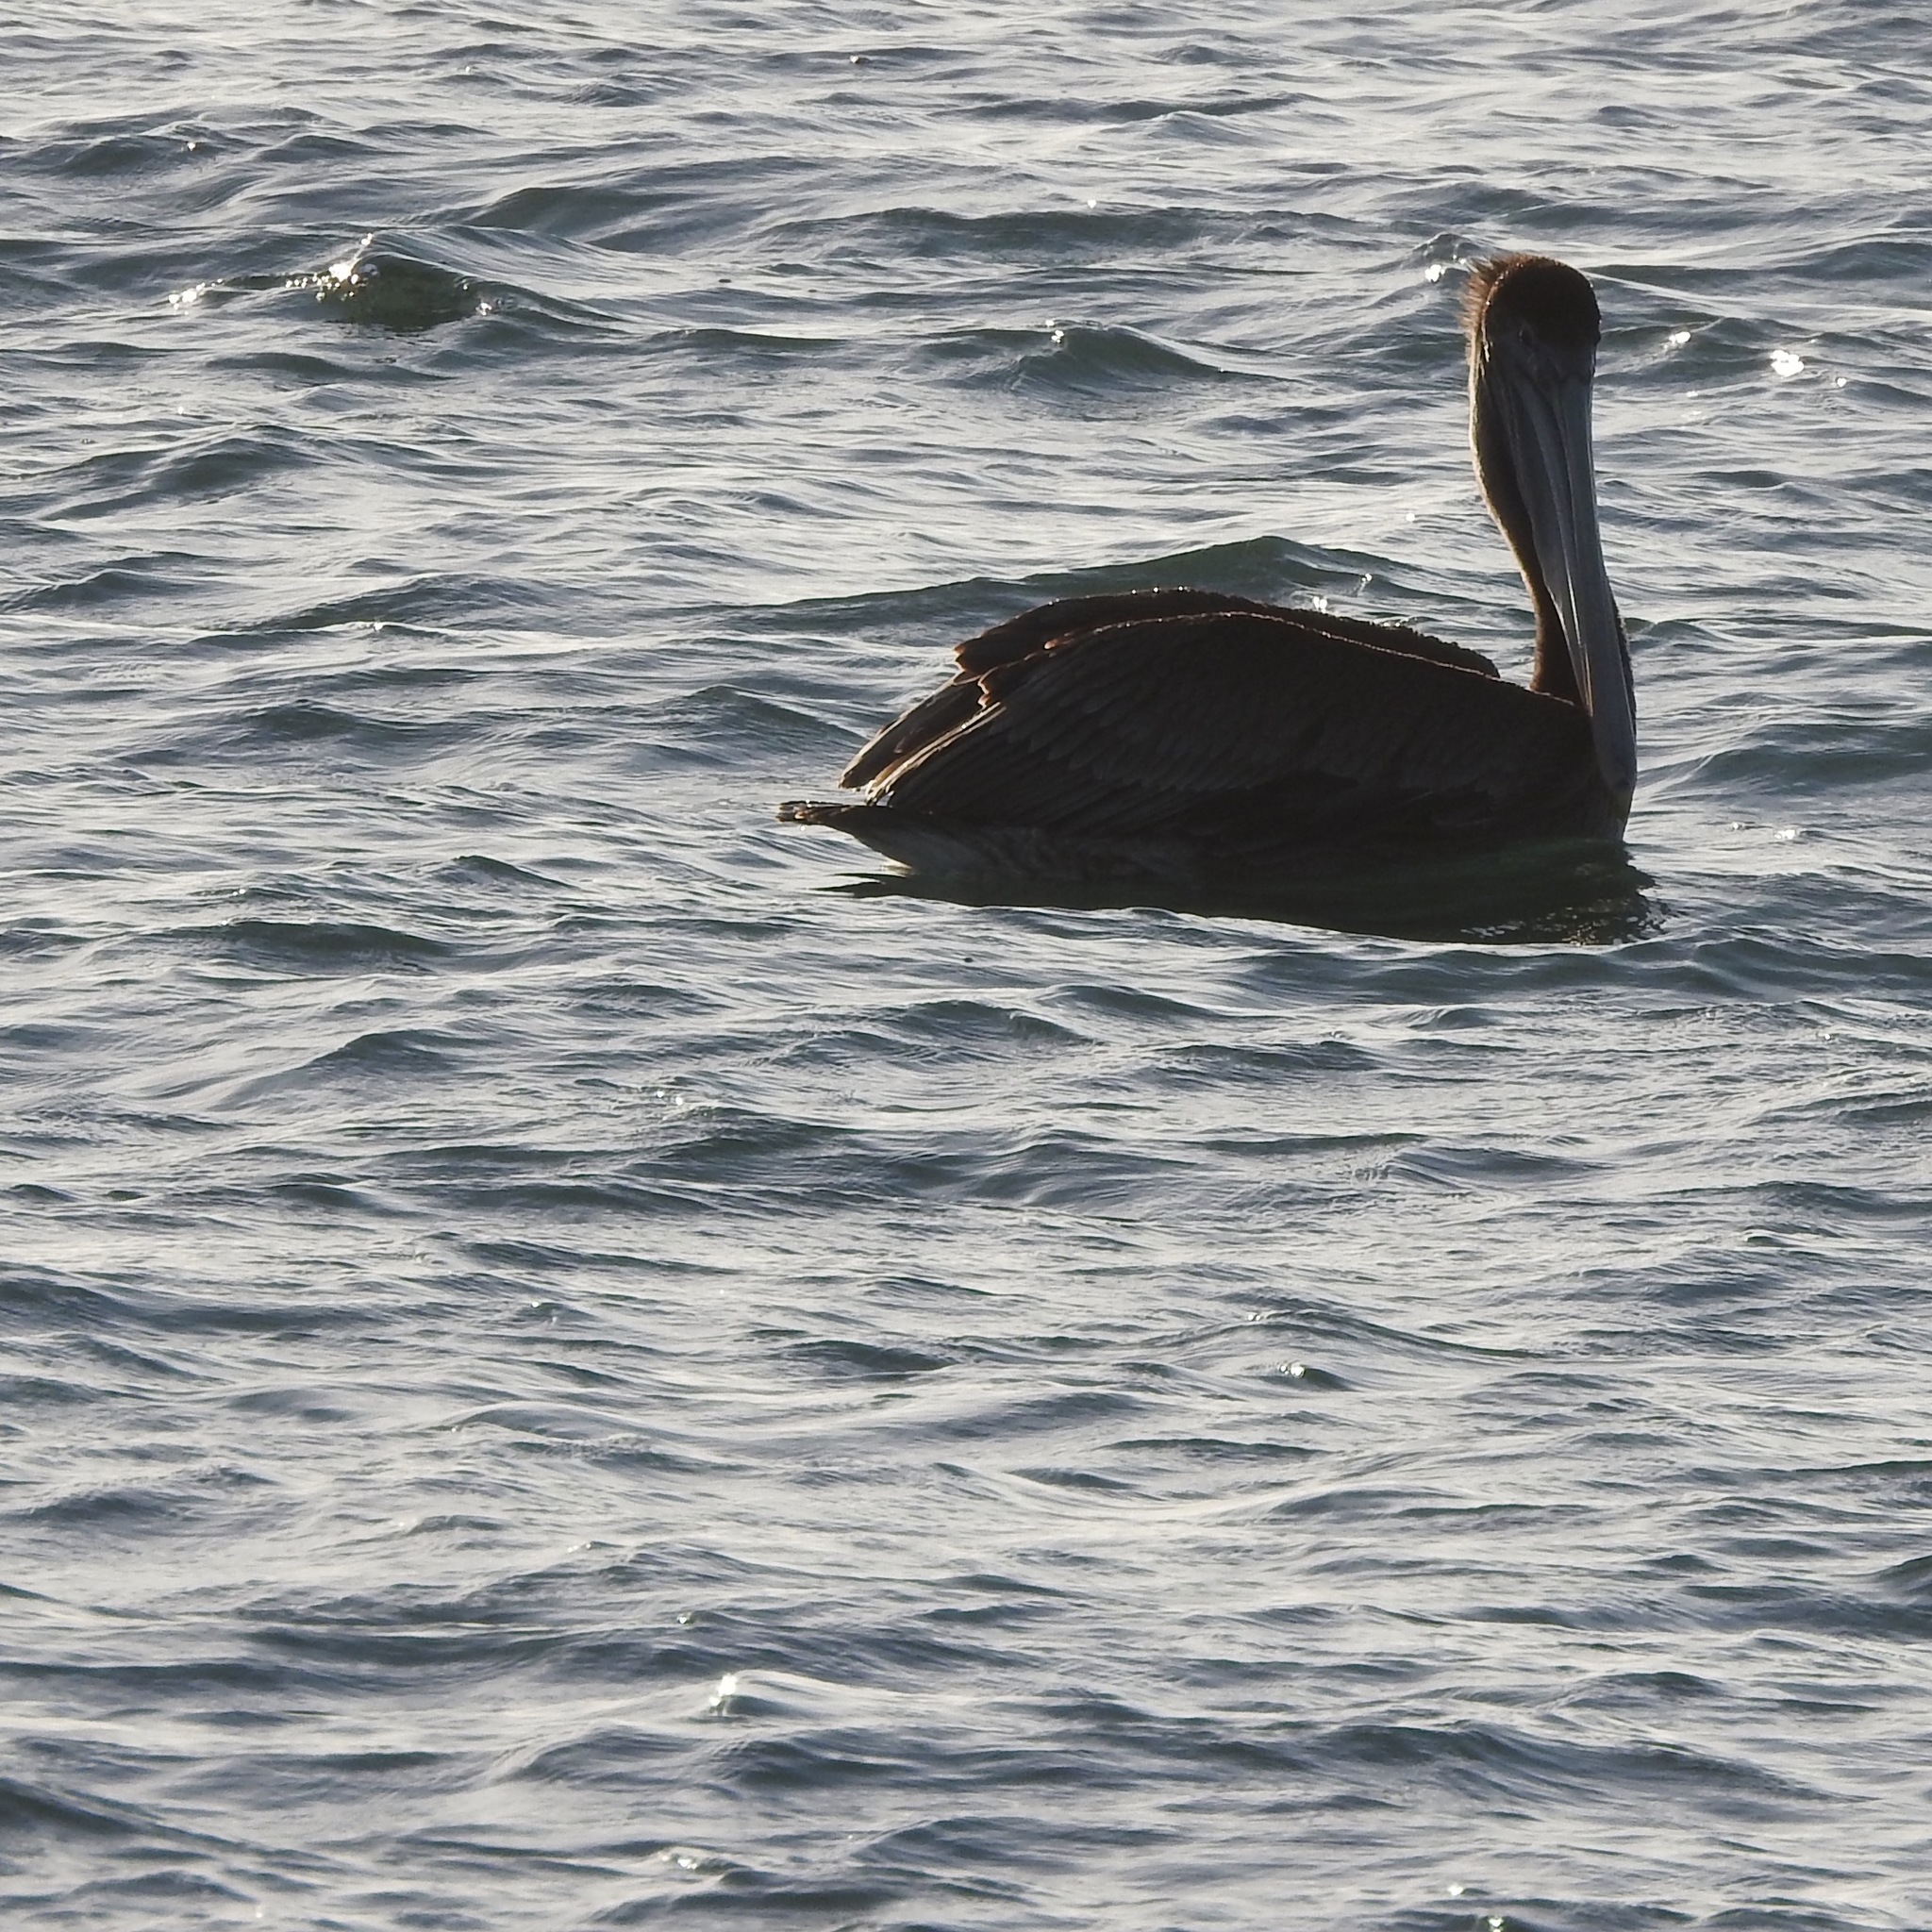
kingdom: Animalia
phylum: Chordata
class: Aves
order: Pelecaniformes
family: Pelecanidae
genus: Pelecanus
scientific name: Pelecanus occidentalis
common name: Brown pelican
